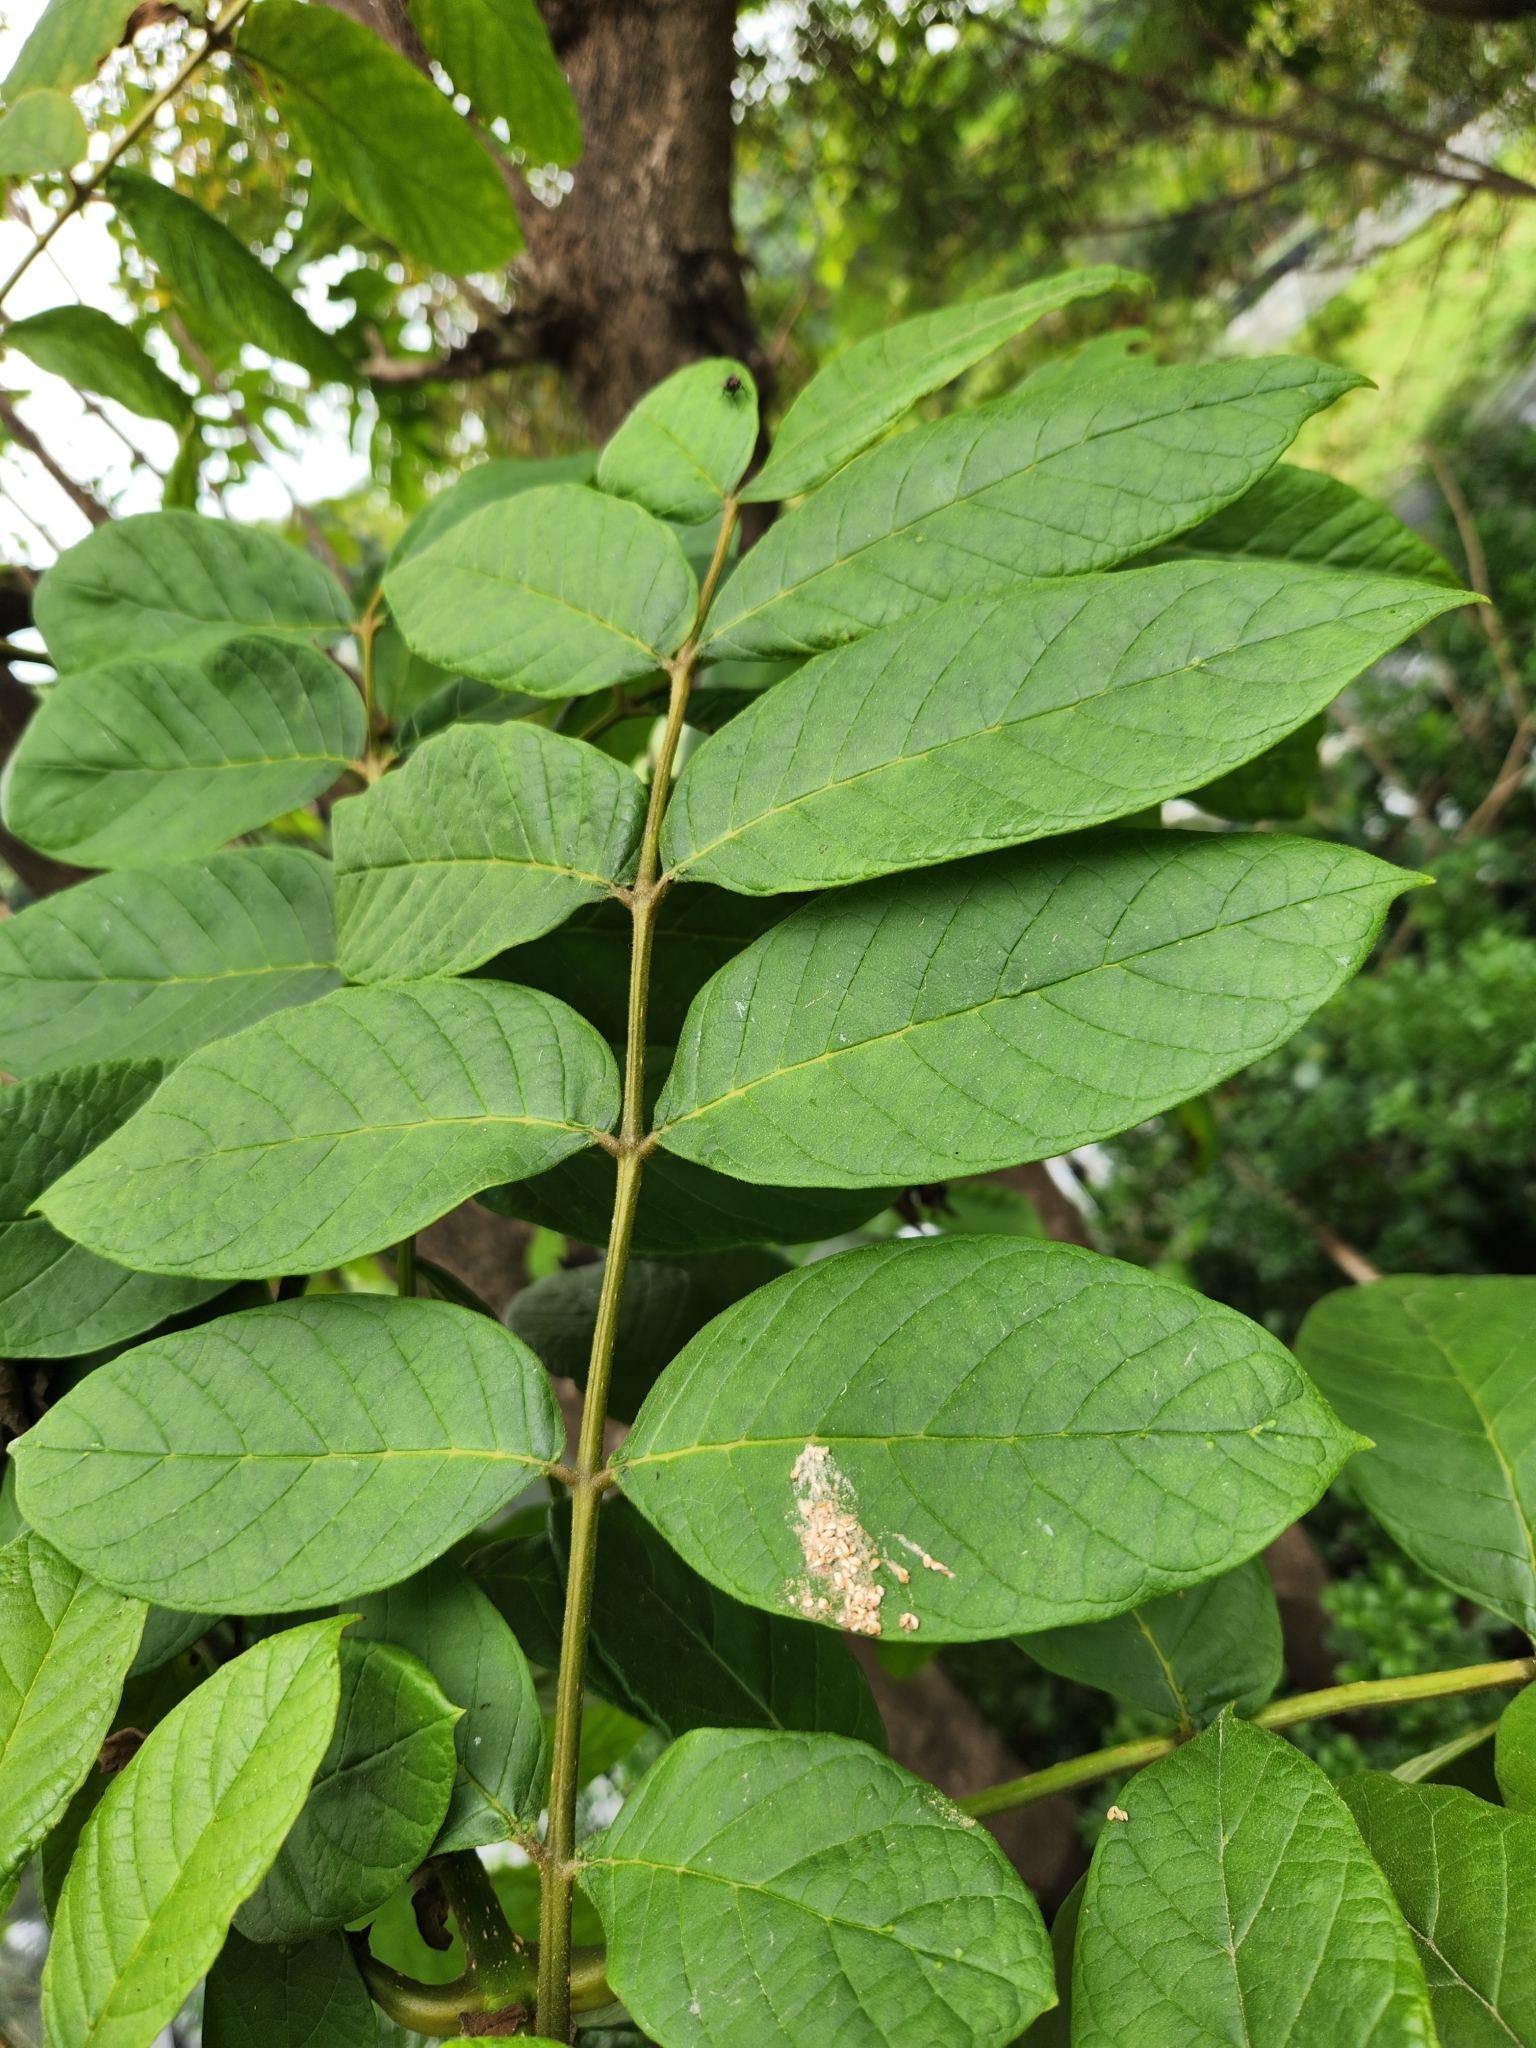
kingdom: Plantae
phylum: Tracheophyta
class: Magnoliopsida
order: Lamiales
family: Bignoniaceae
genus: Spathodea
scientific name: Spathodea campanulata
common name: African tuliptree
